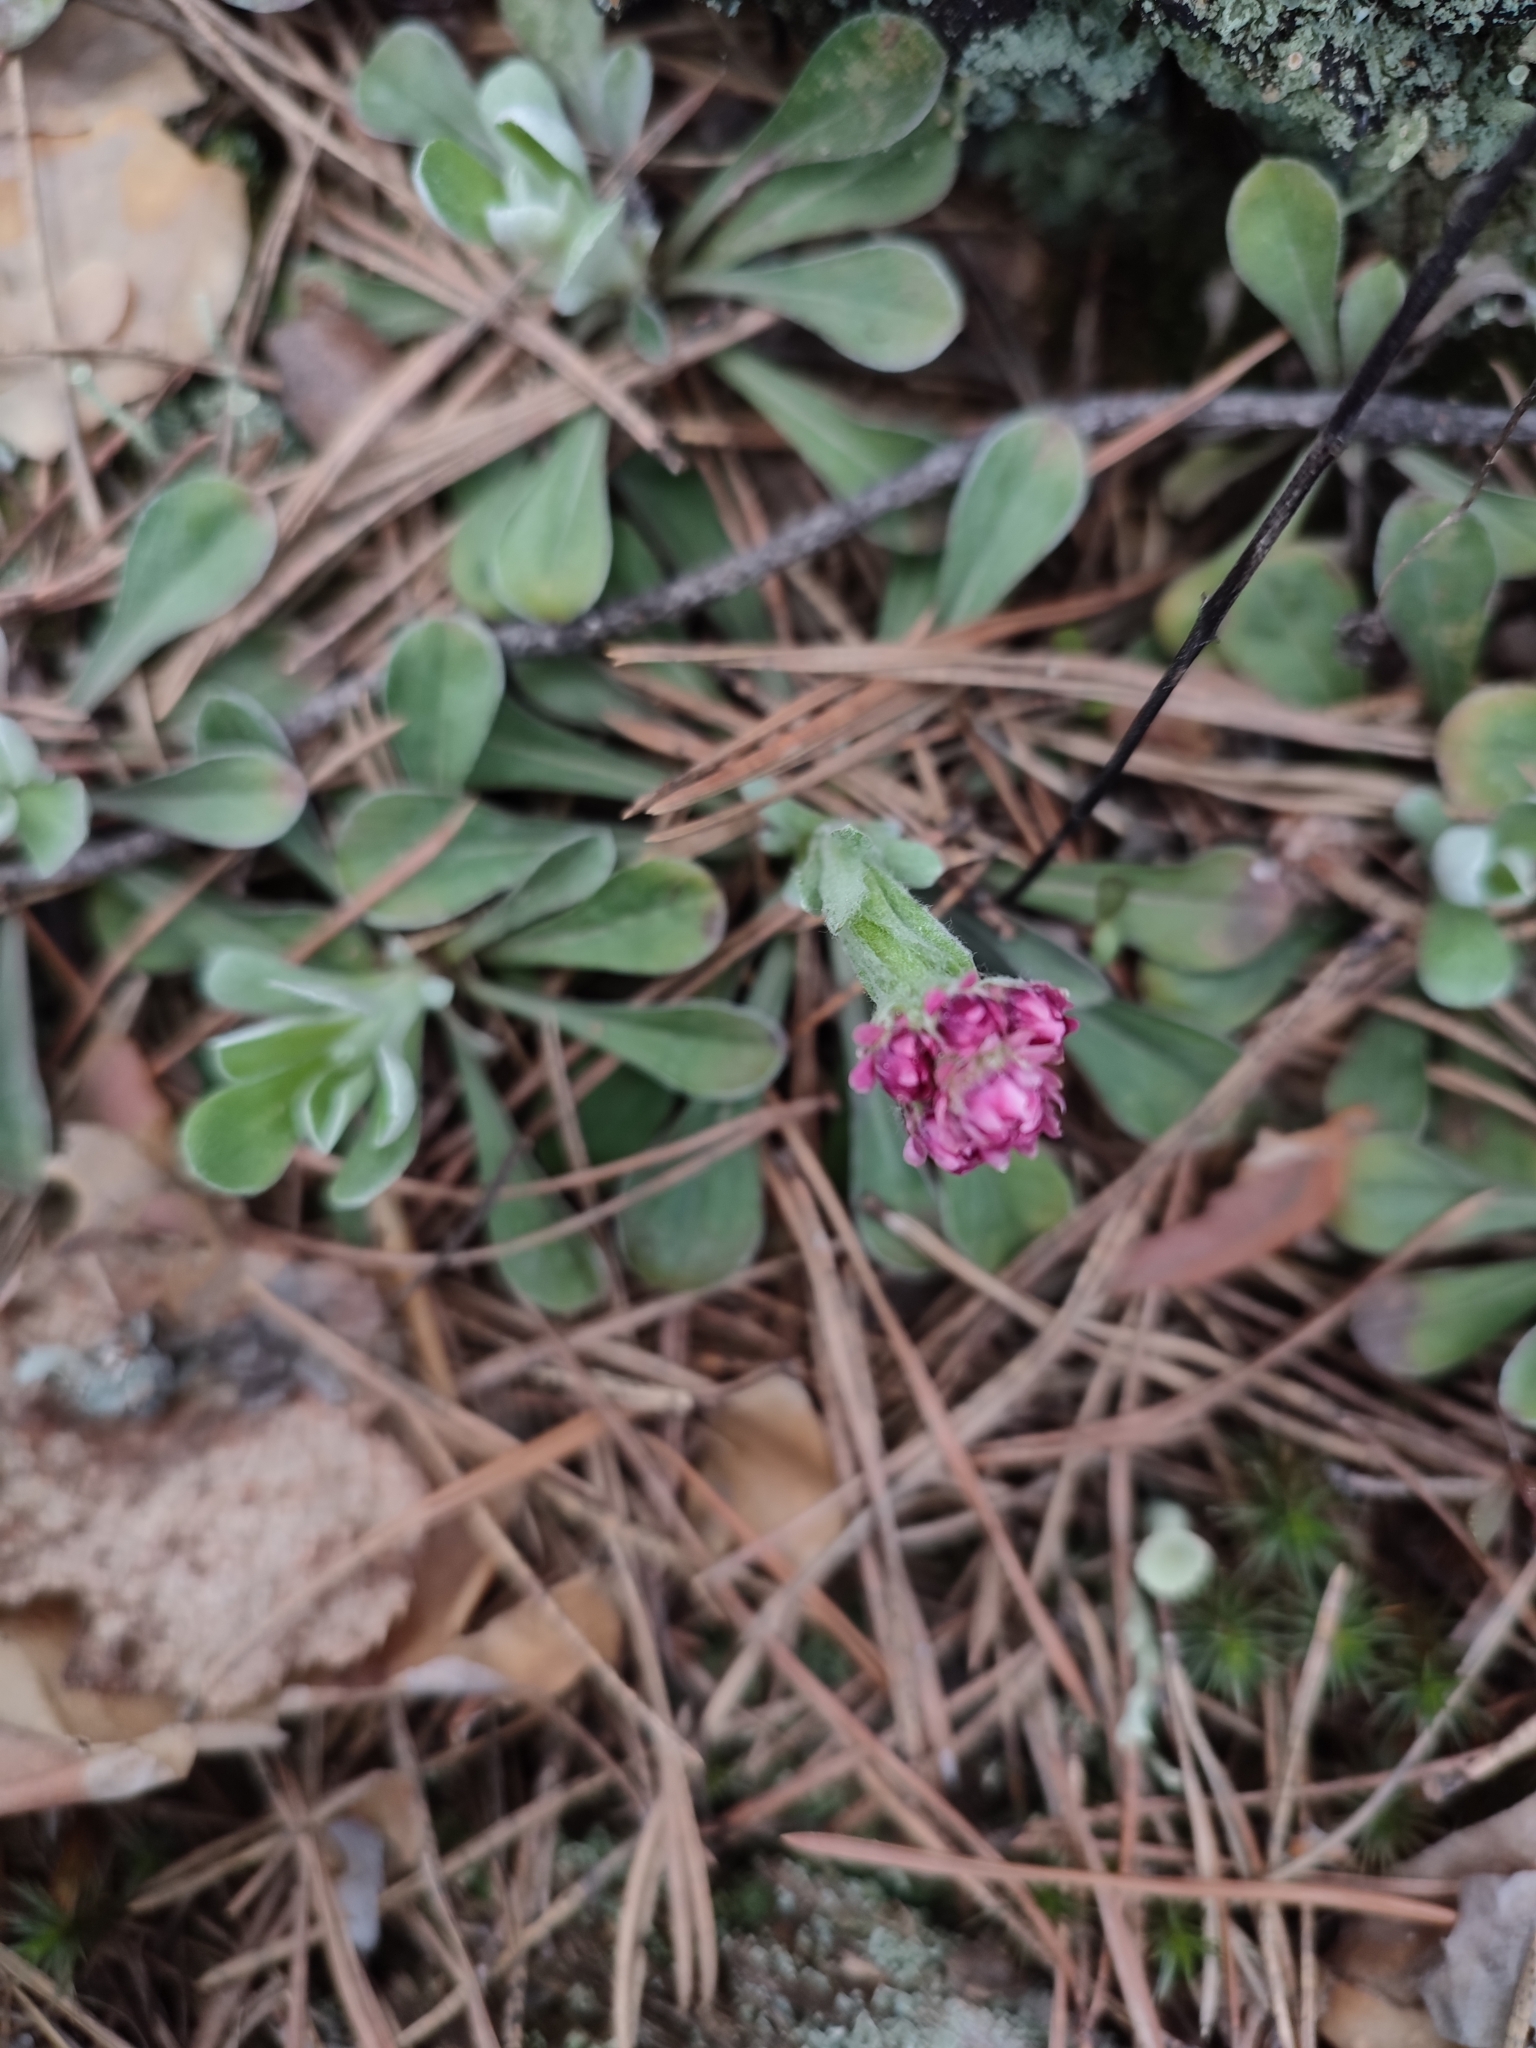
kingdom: Plantae
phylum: Tracheophyta
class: Magnoliopsida
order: Asterales
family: Asteraceae
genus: Antennaria
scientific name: Antennaria dioica
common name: Mountain everlasting
